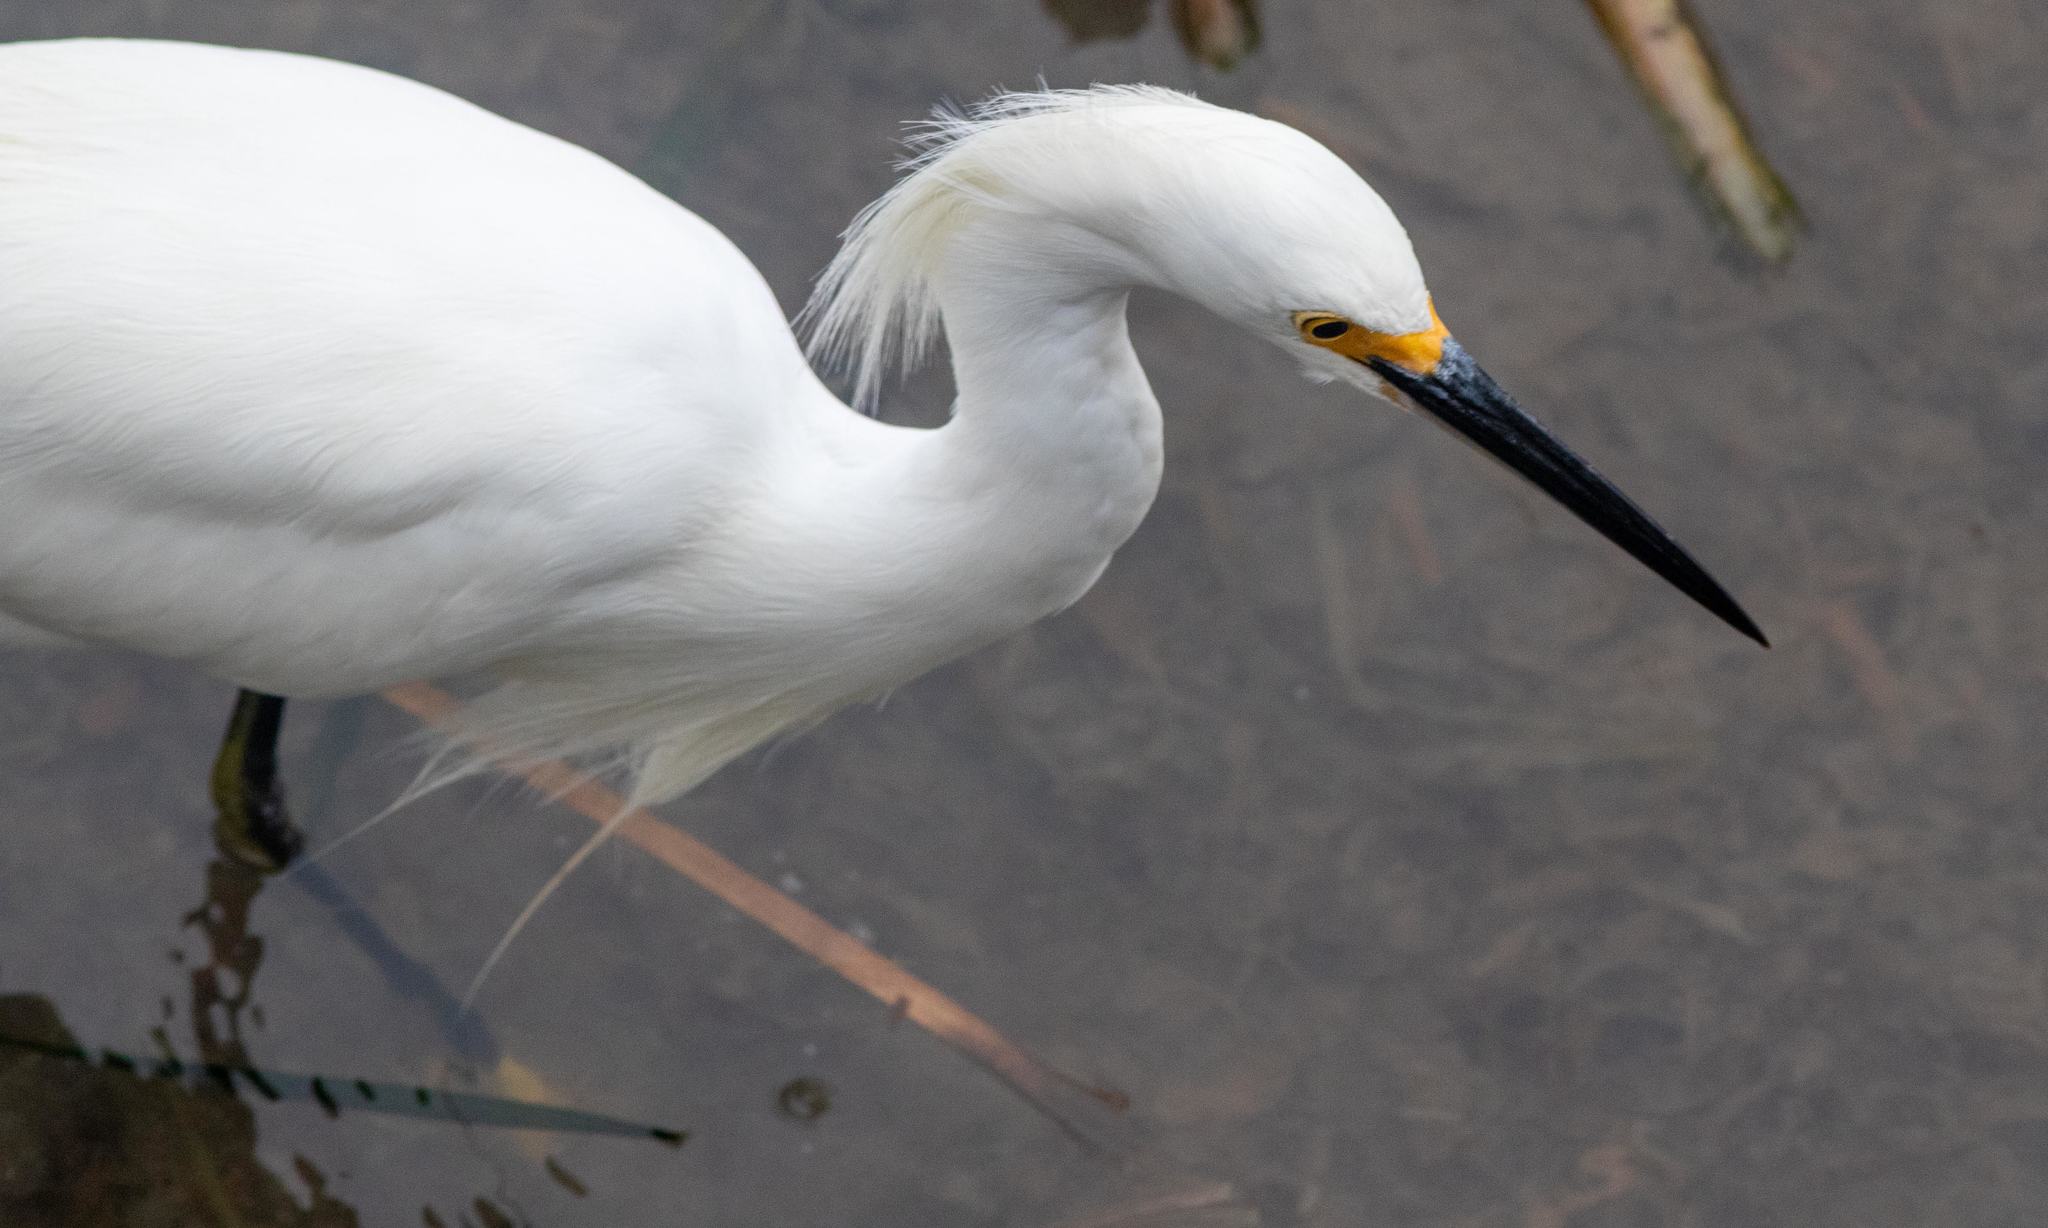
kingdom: Animalia
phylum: Chordata
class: Aves
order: Pelecaniformes
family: Ardeidae
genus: Egretta
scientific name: Egretta thula
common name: Snowy egret
